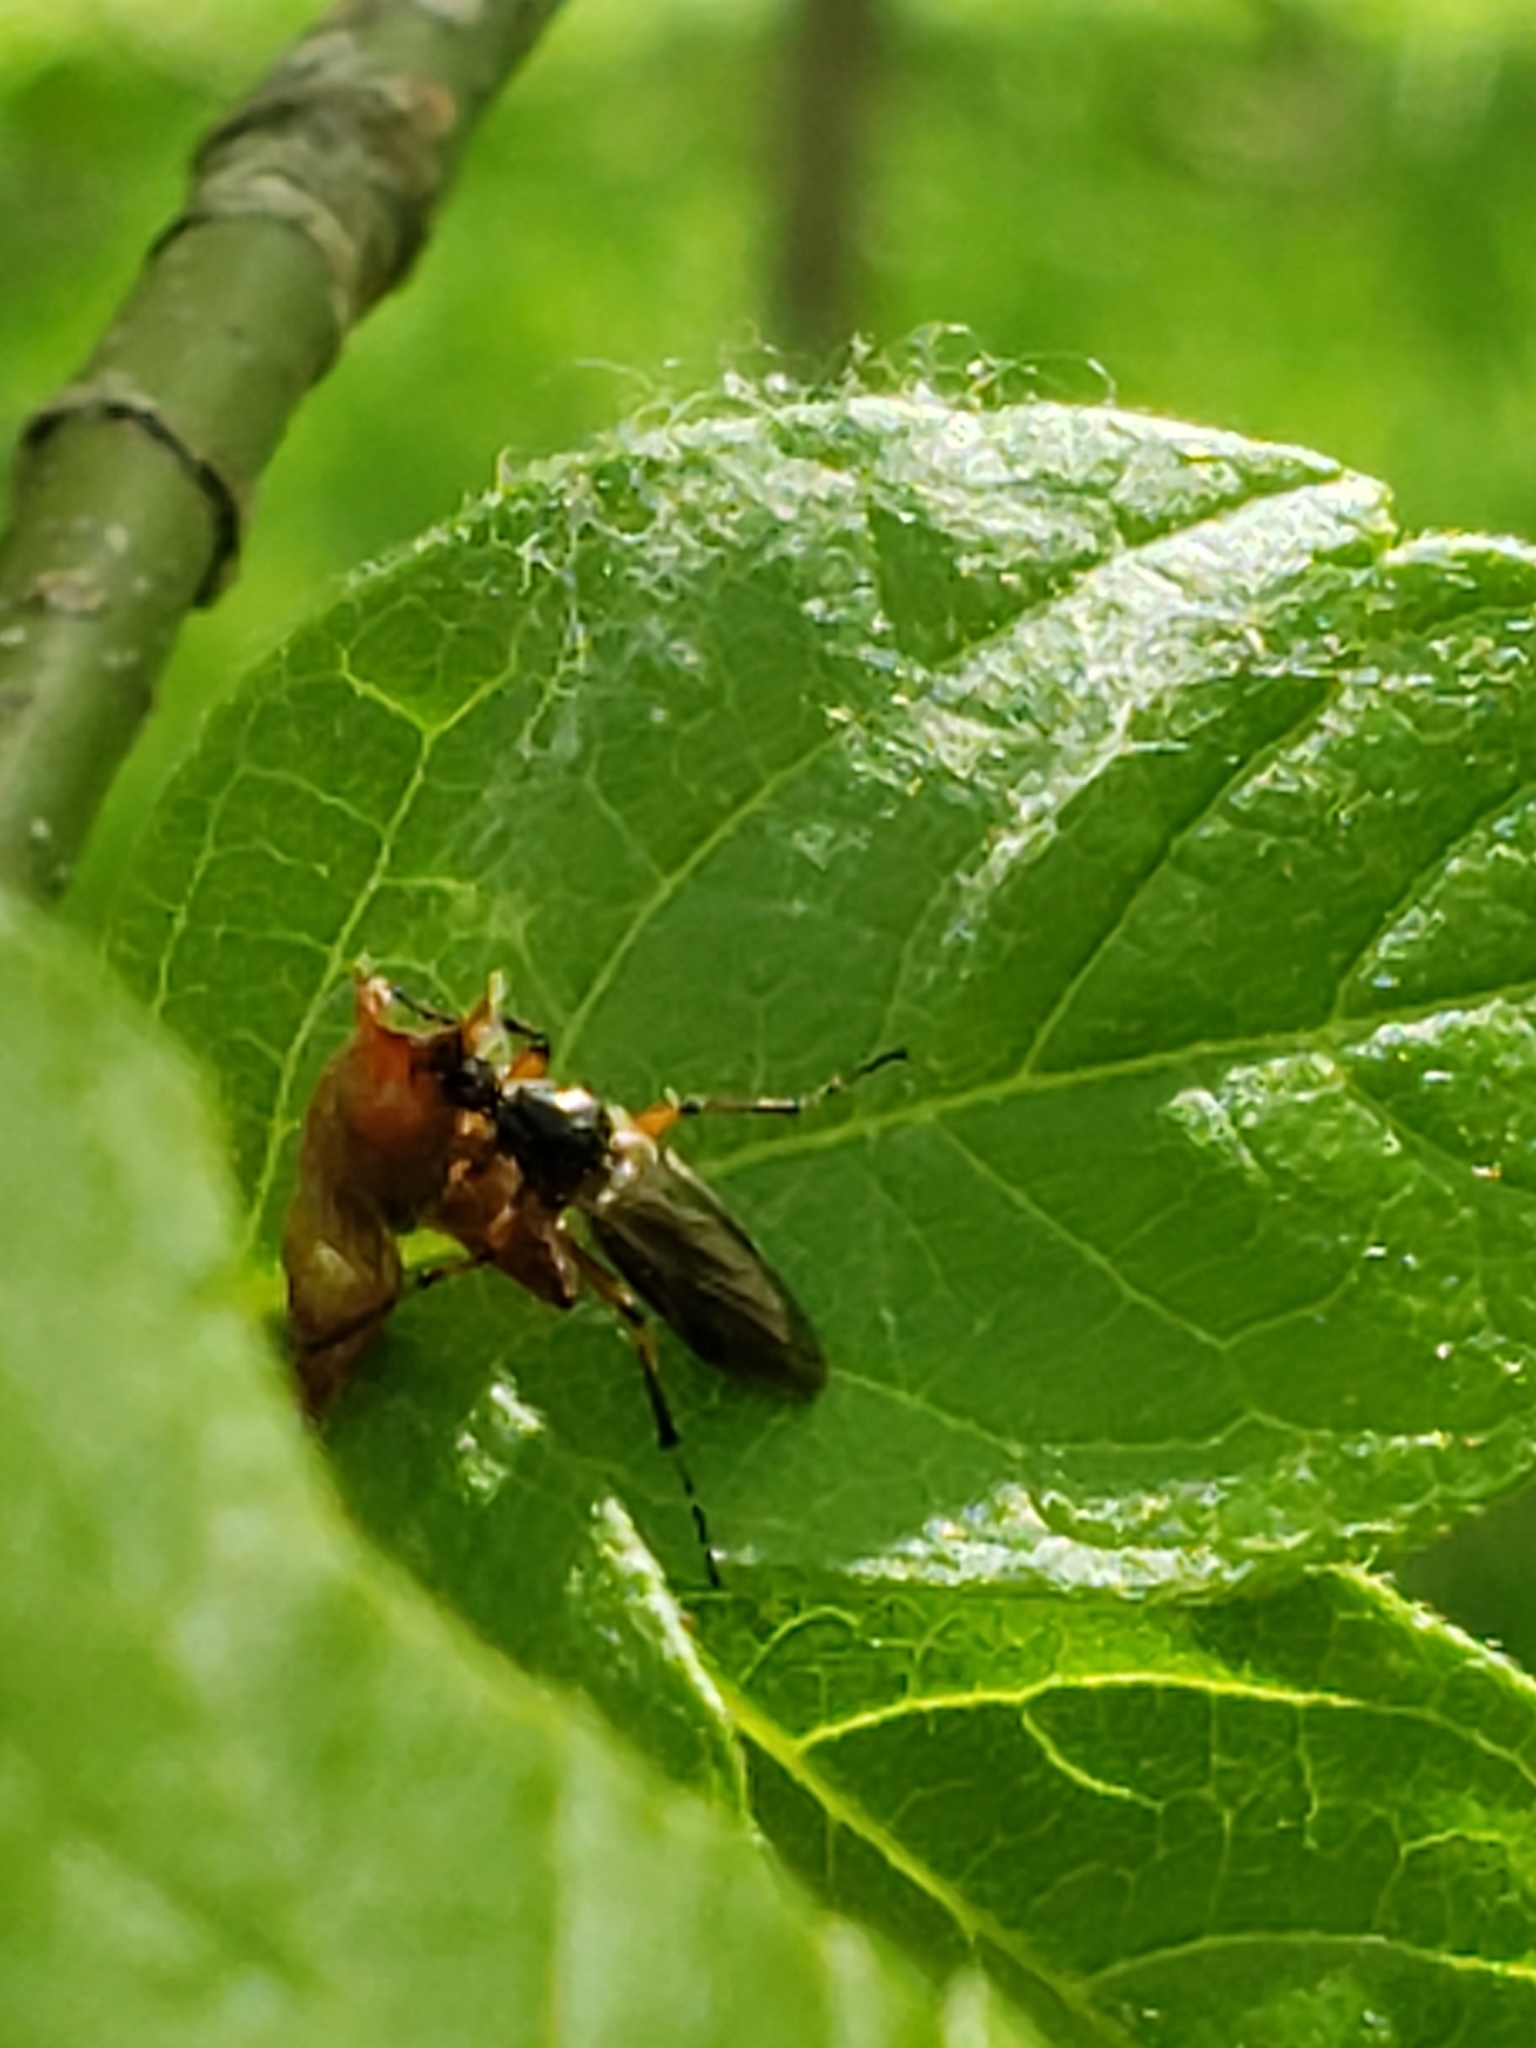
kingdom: Animalia
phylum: Arthropoda
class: Insecta
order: Diptera
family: Bibionidae
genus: Bibio
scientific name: Bibio
